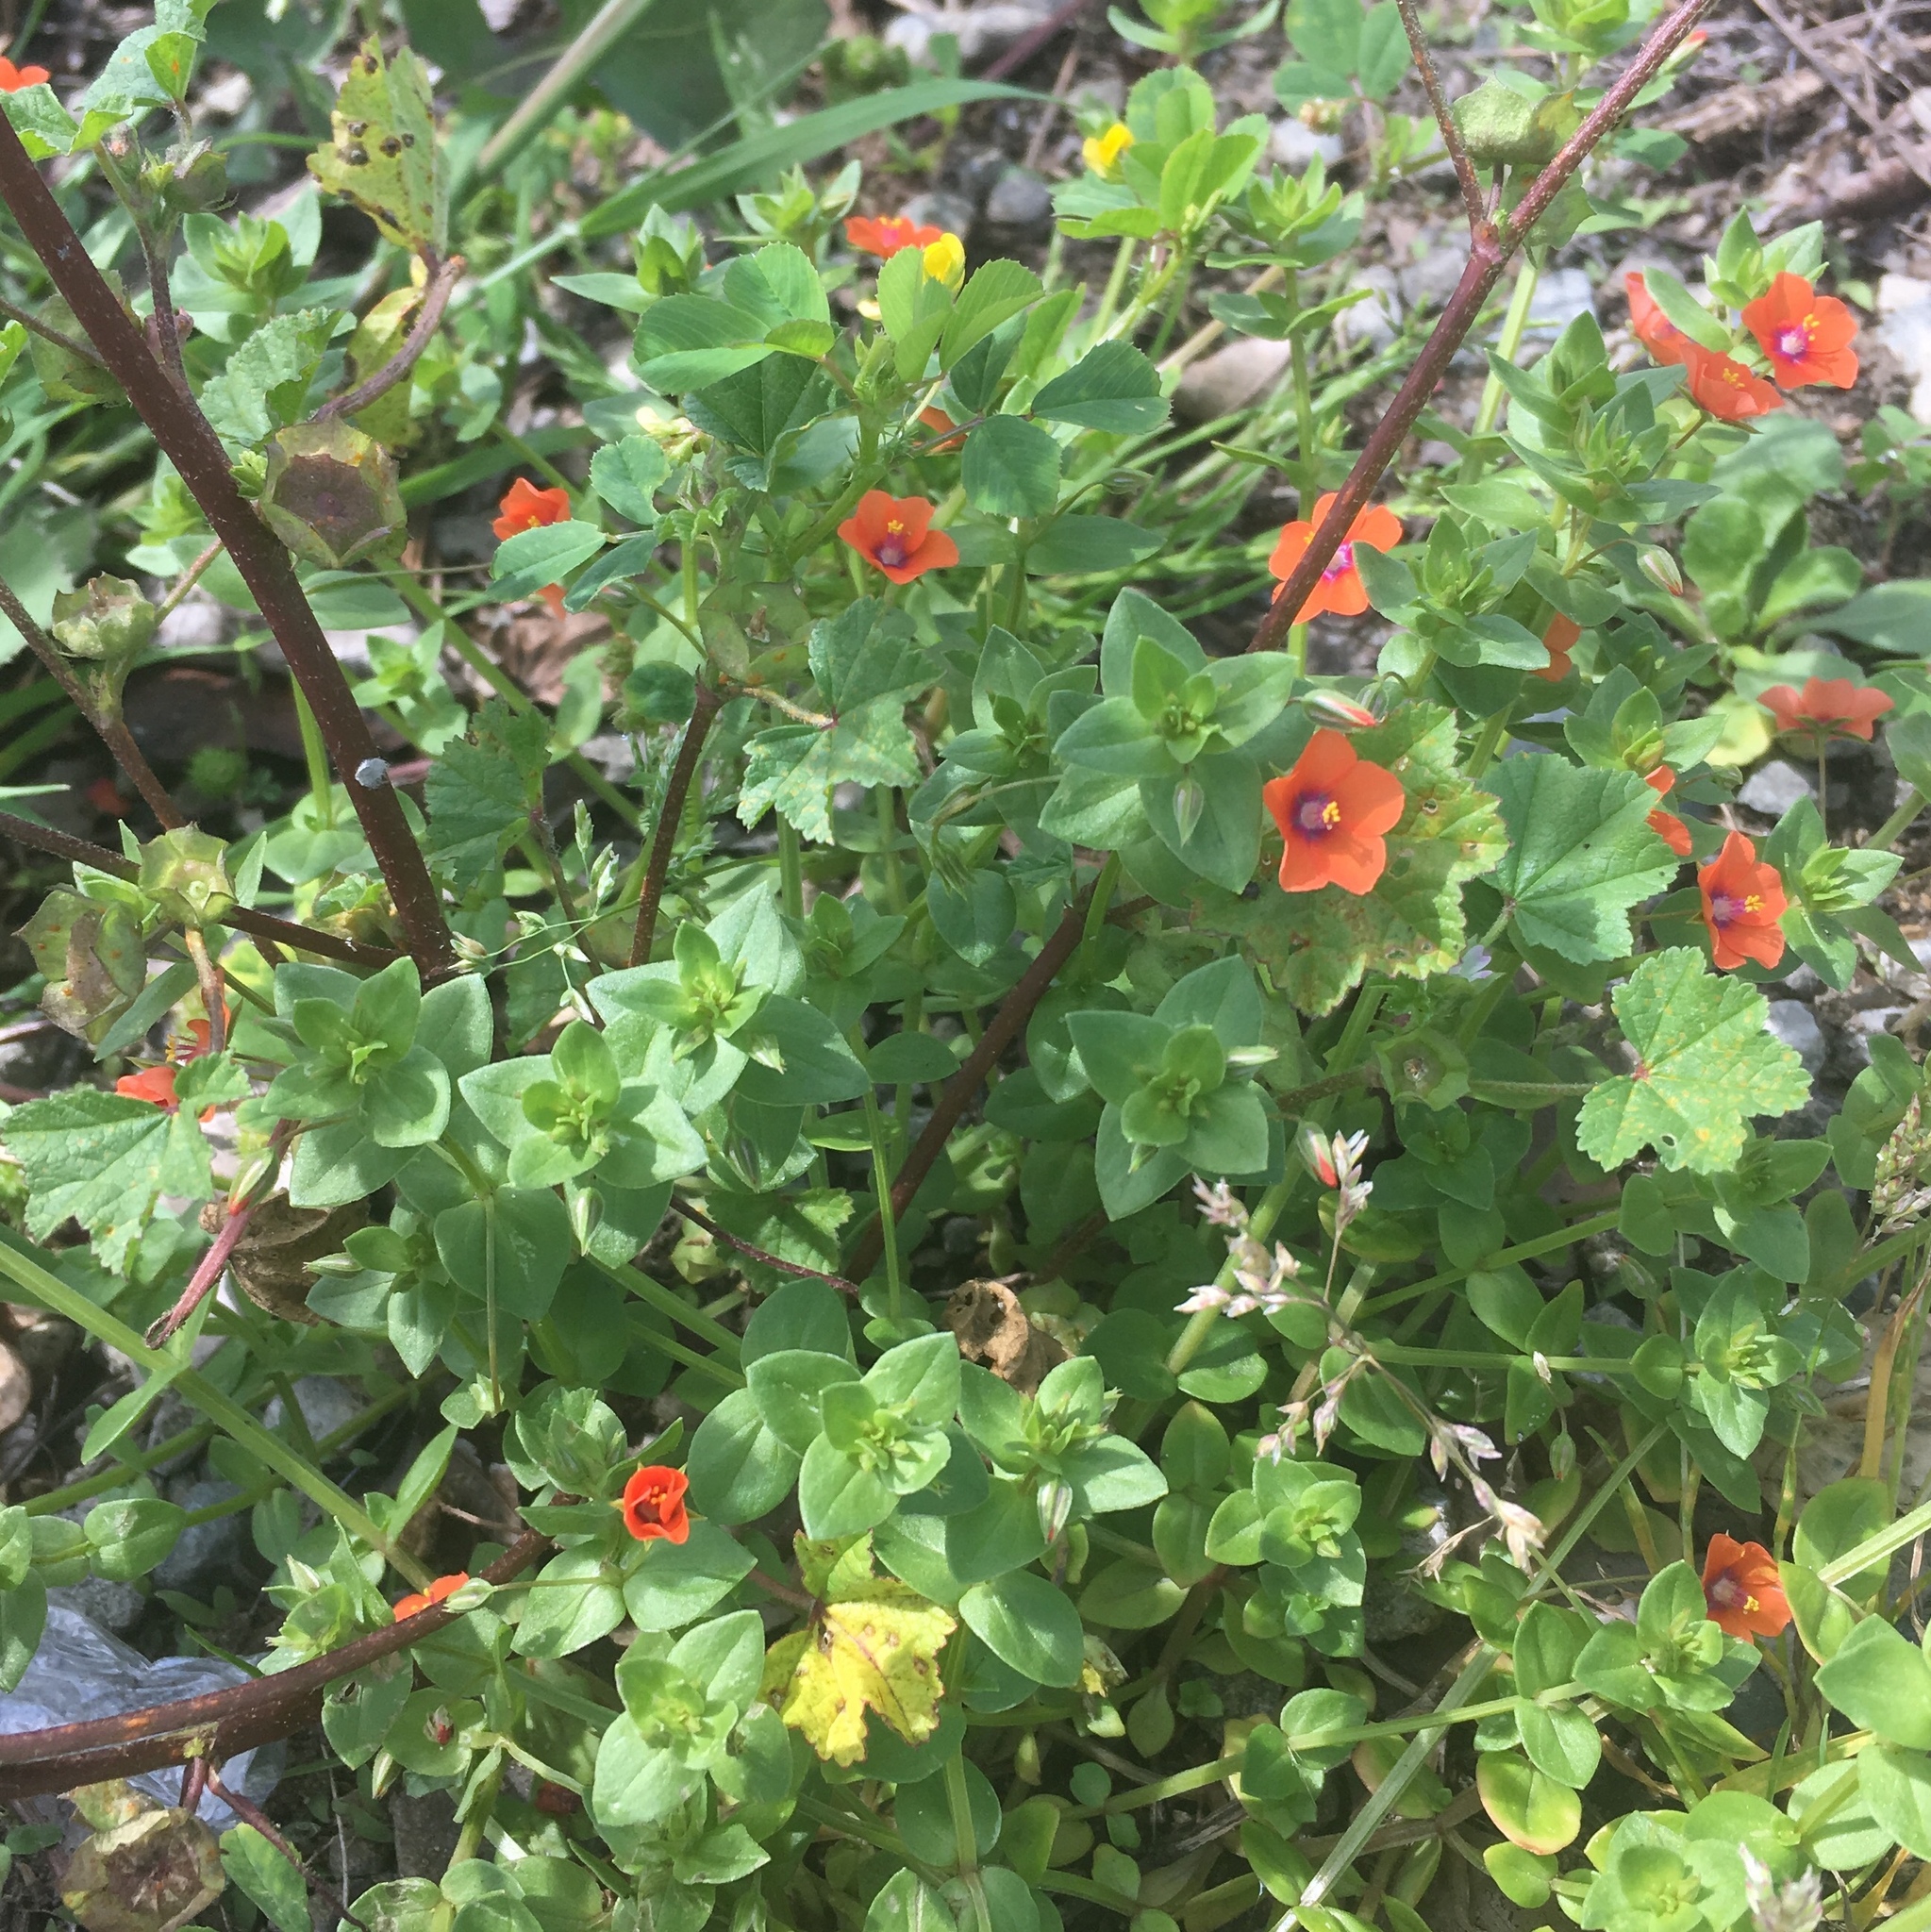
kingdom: Plantae
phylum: Tracheophyta
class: Magnoliopsida
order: Ericales
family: Primulaceae
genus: Lysimachia
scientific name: Lysimachia arvensis
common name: Scarlet pimpernel
